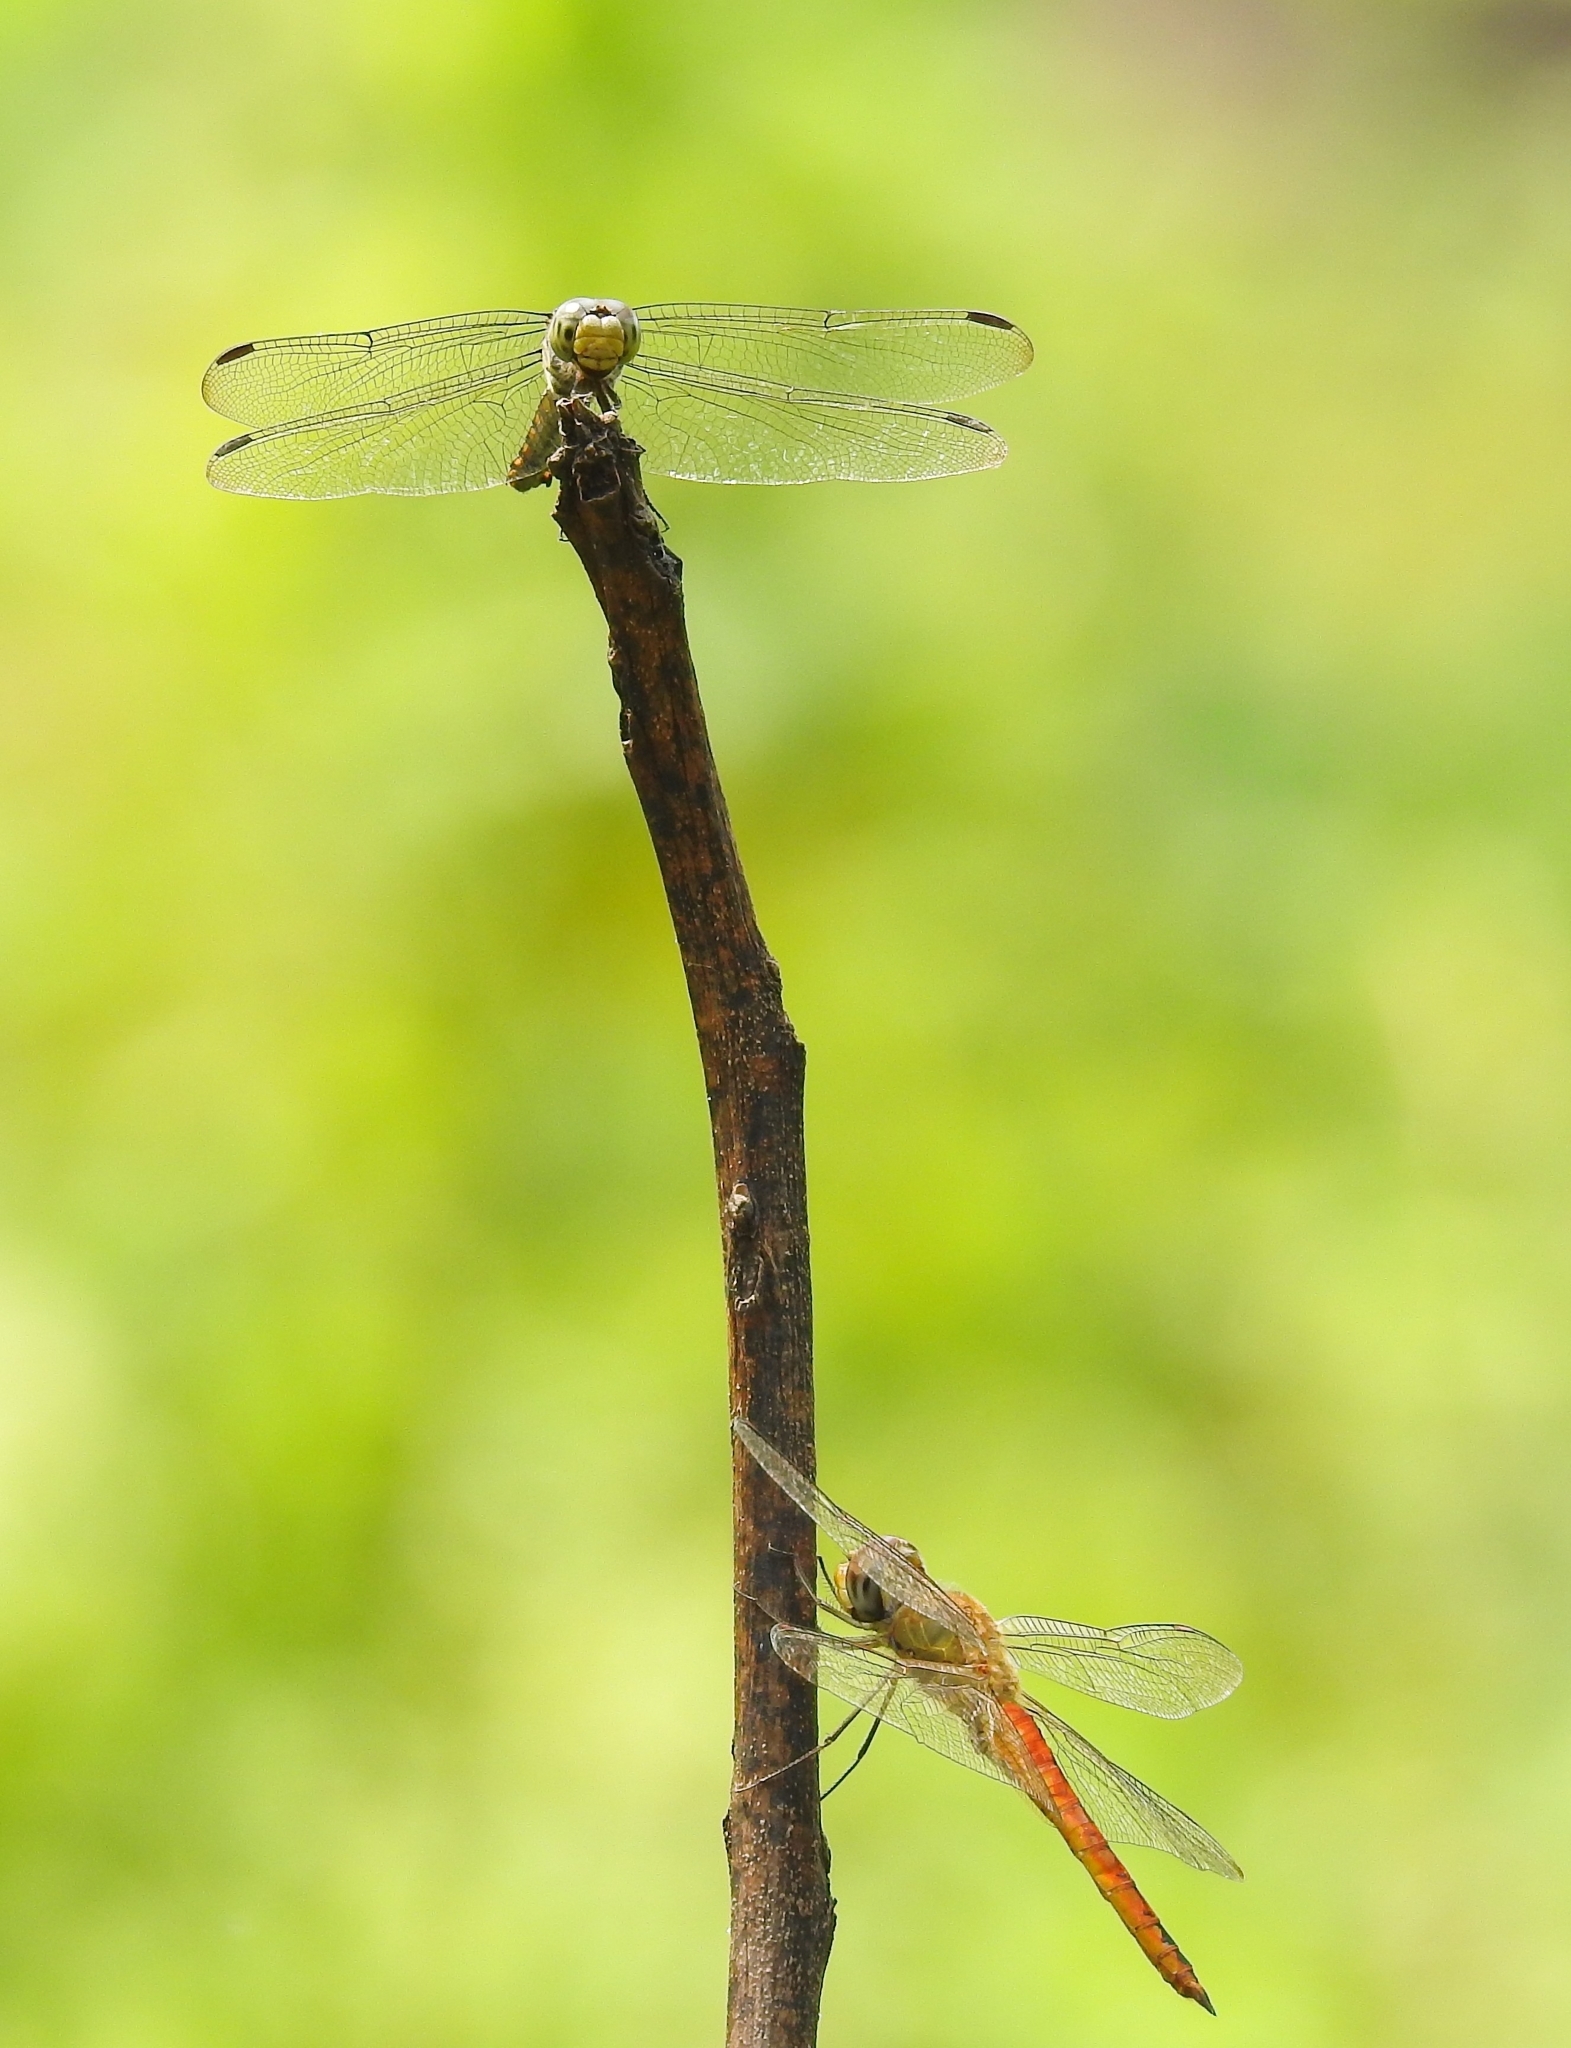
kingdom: Animalia
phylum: Arthropoda
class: Insecta
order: Odonata
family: Libellulidae
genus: Pantala
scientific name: Pantala flavescens
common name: Wandering glider
